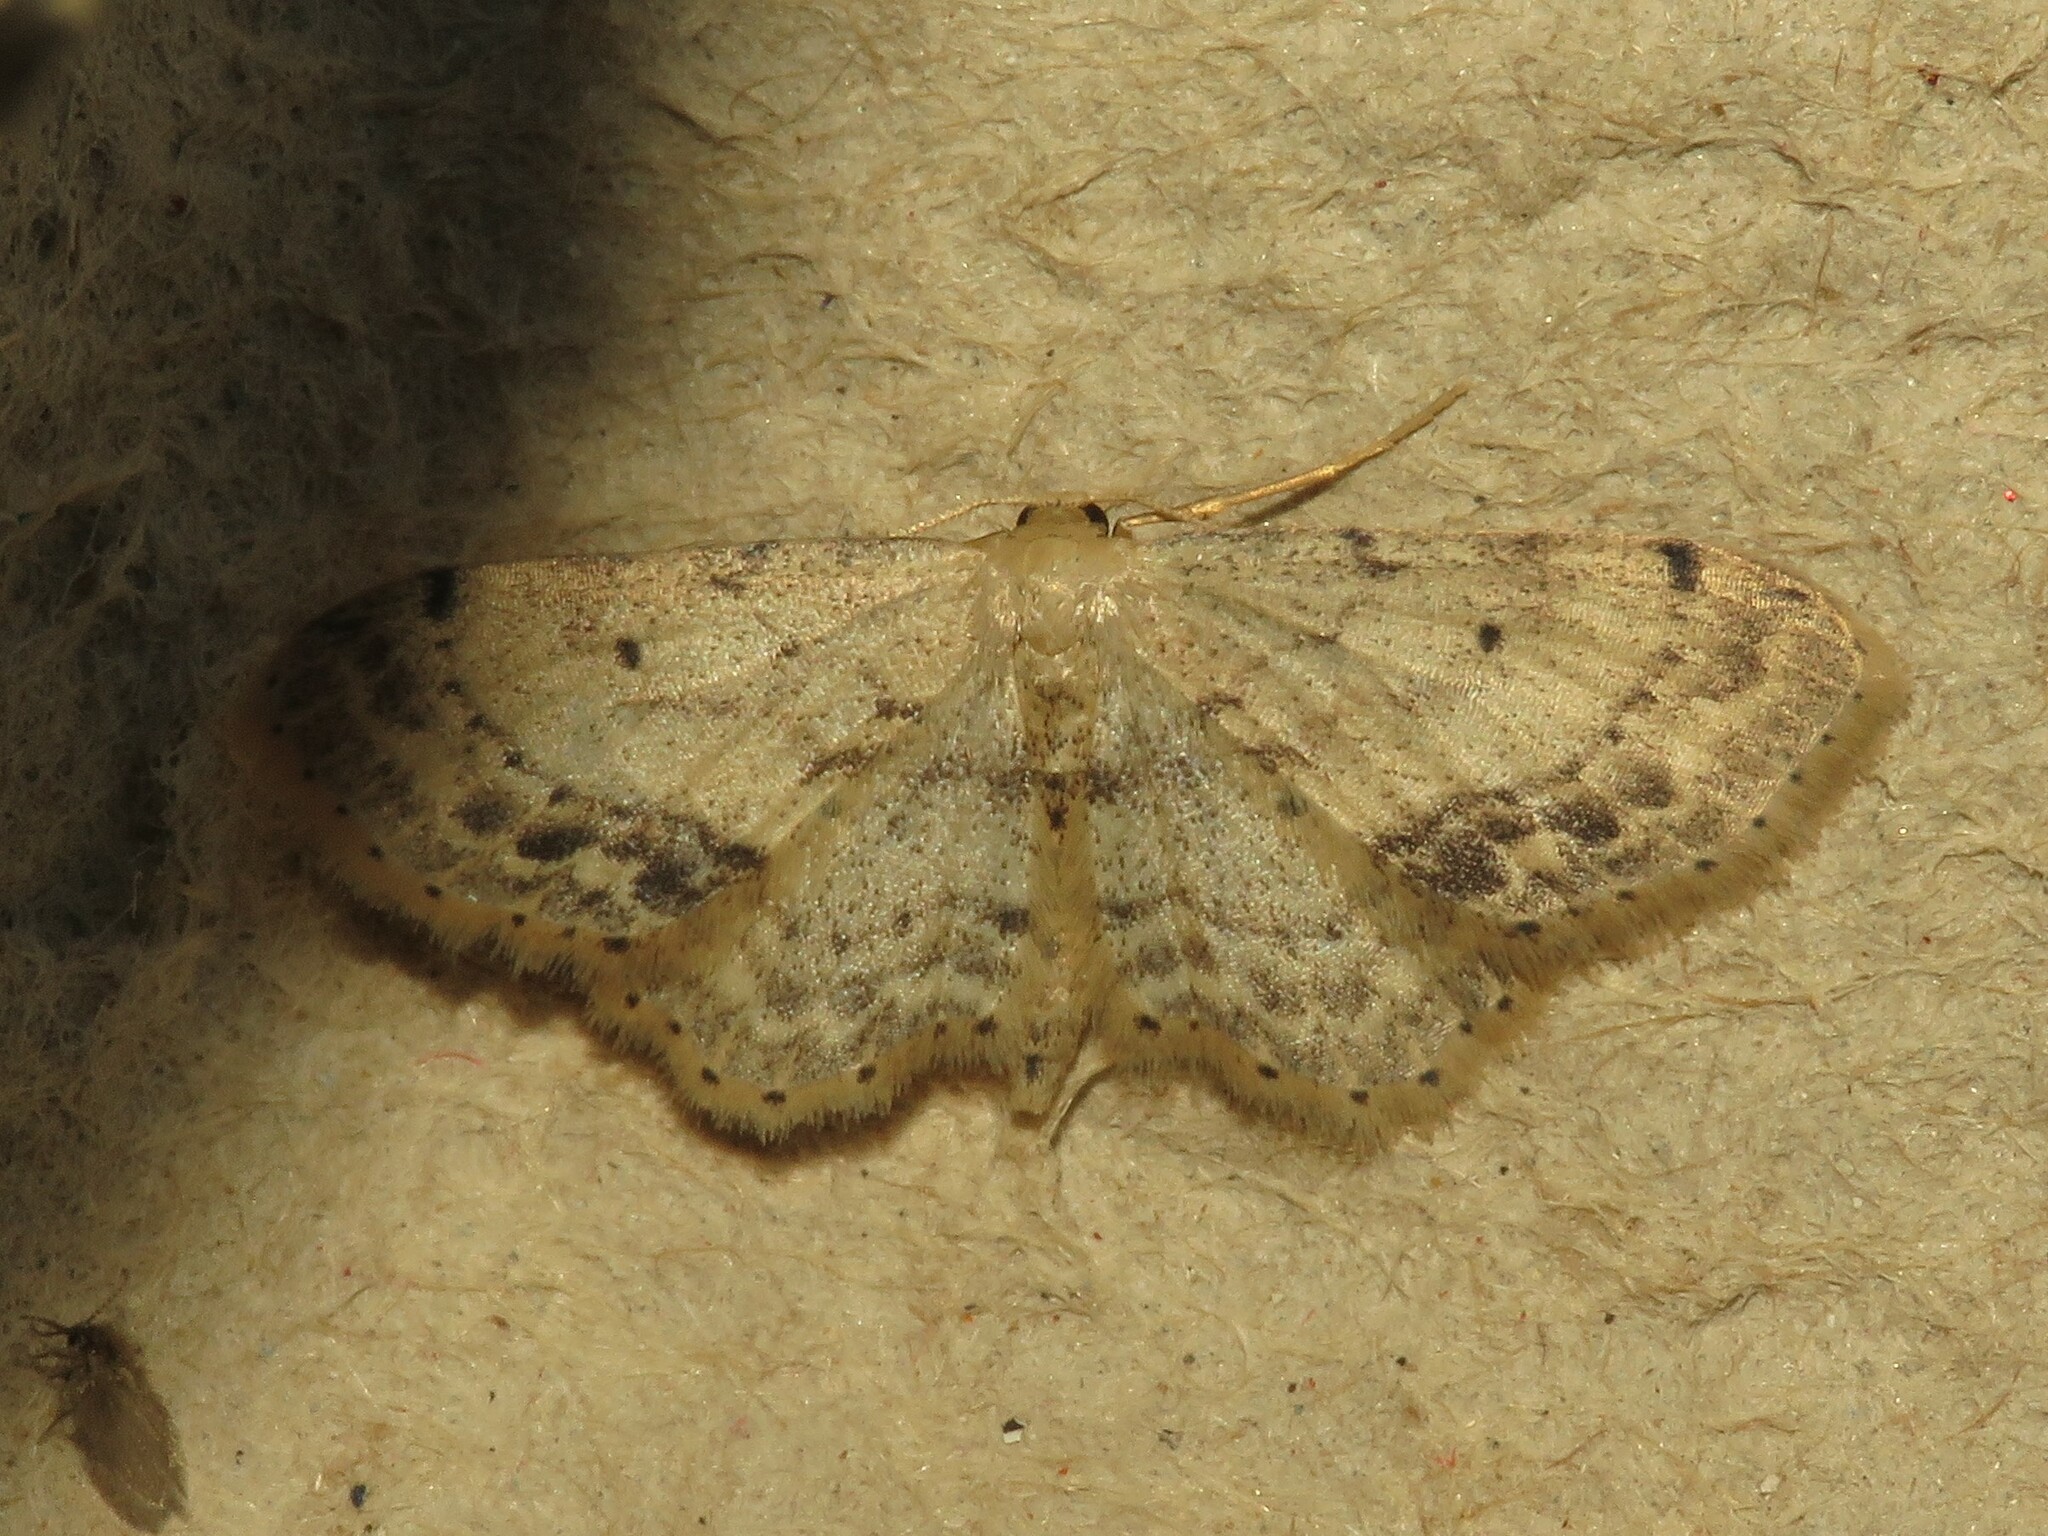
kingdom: Animalia
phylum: Arthropoda
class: Insecta
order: Lepidoptera
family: Geometridae
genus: Idaea
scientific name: Idaea dimidiata
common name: Single-dotted wave
